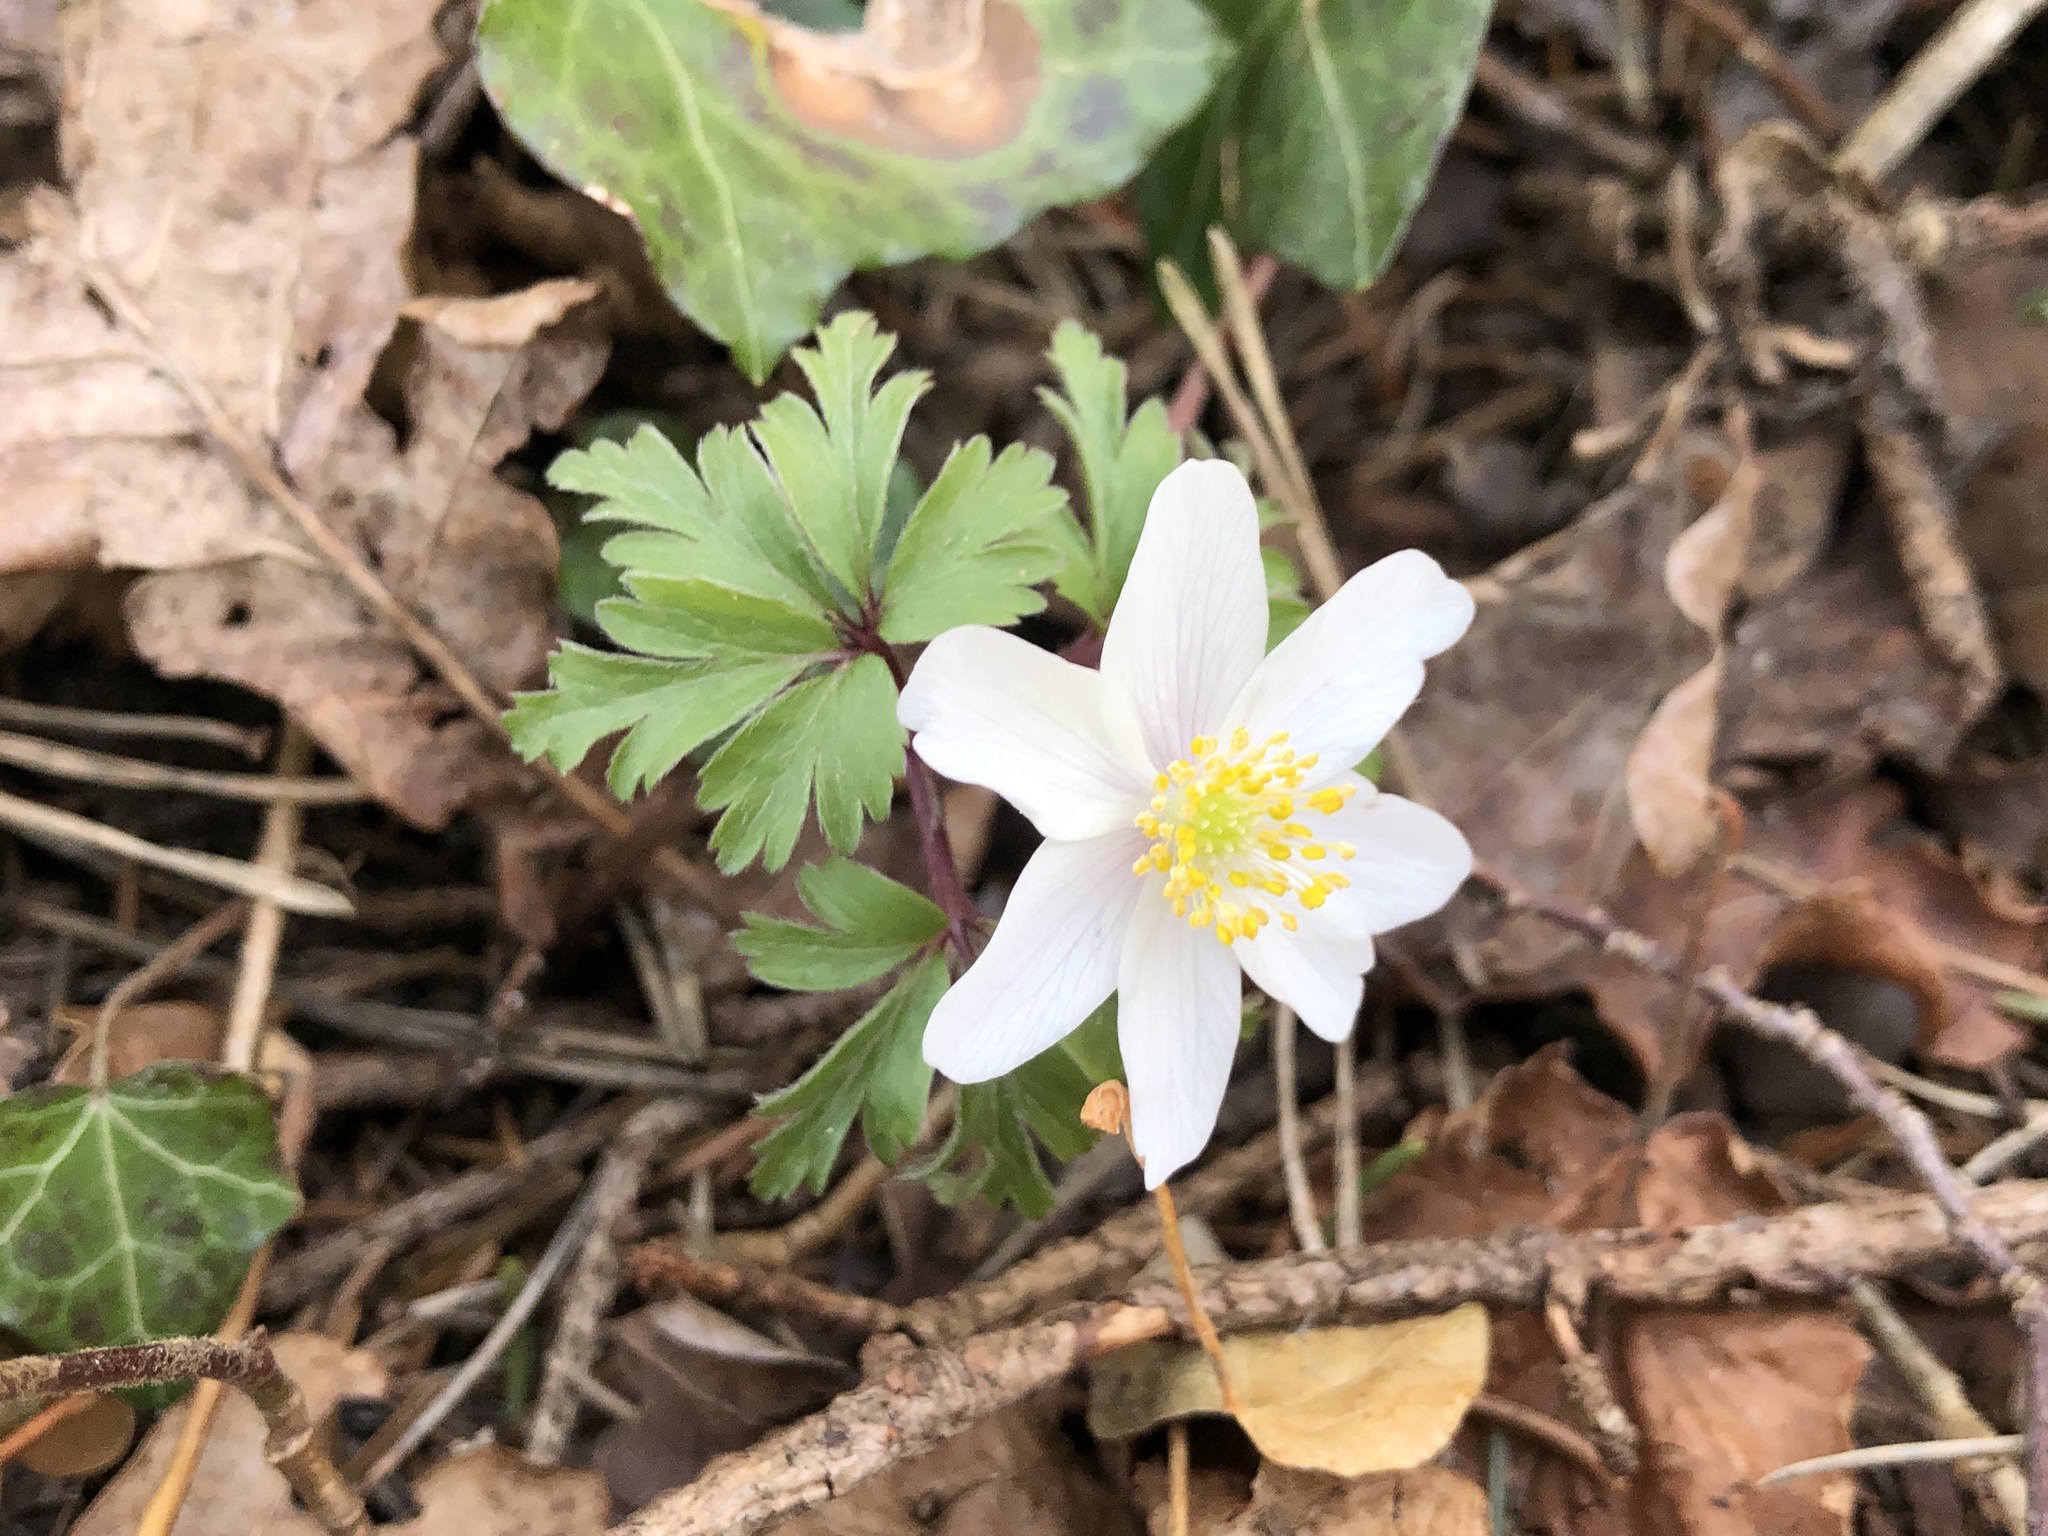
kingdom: Plantae
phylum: Tracheophyta
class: Magnoliopsida
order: Ranunculales
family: Ranunculaceae
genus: Anemone
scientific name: Anemone nemorosa
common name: Wood anemone
